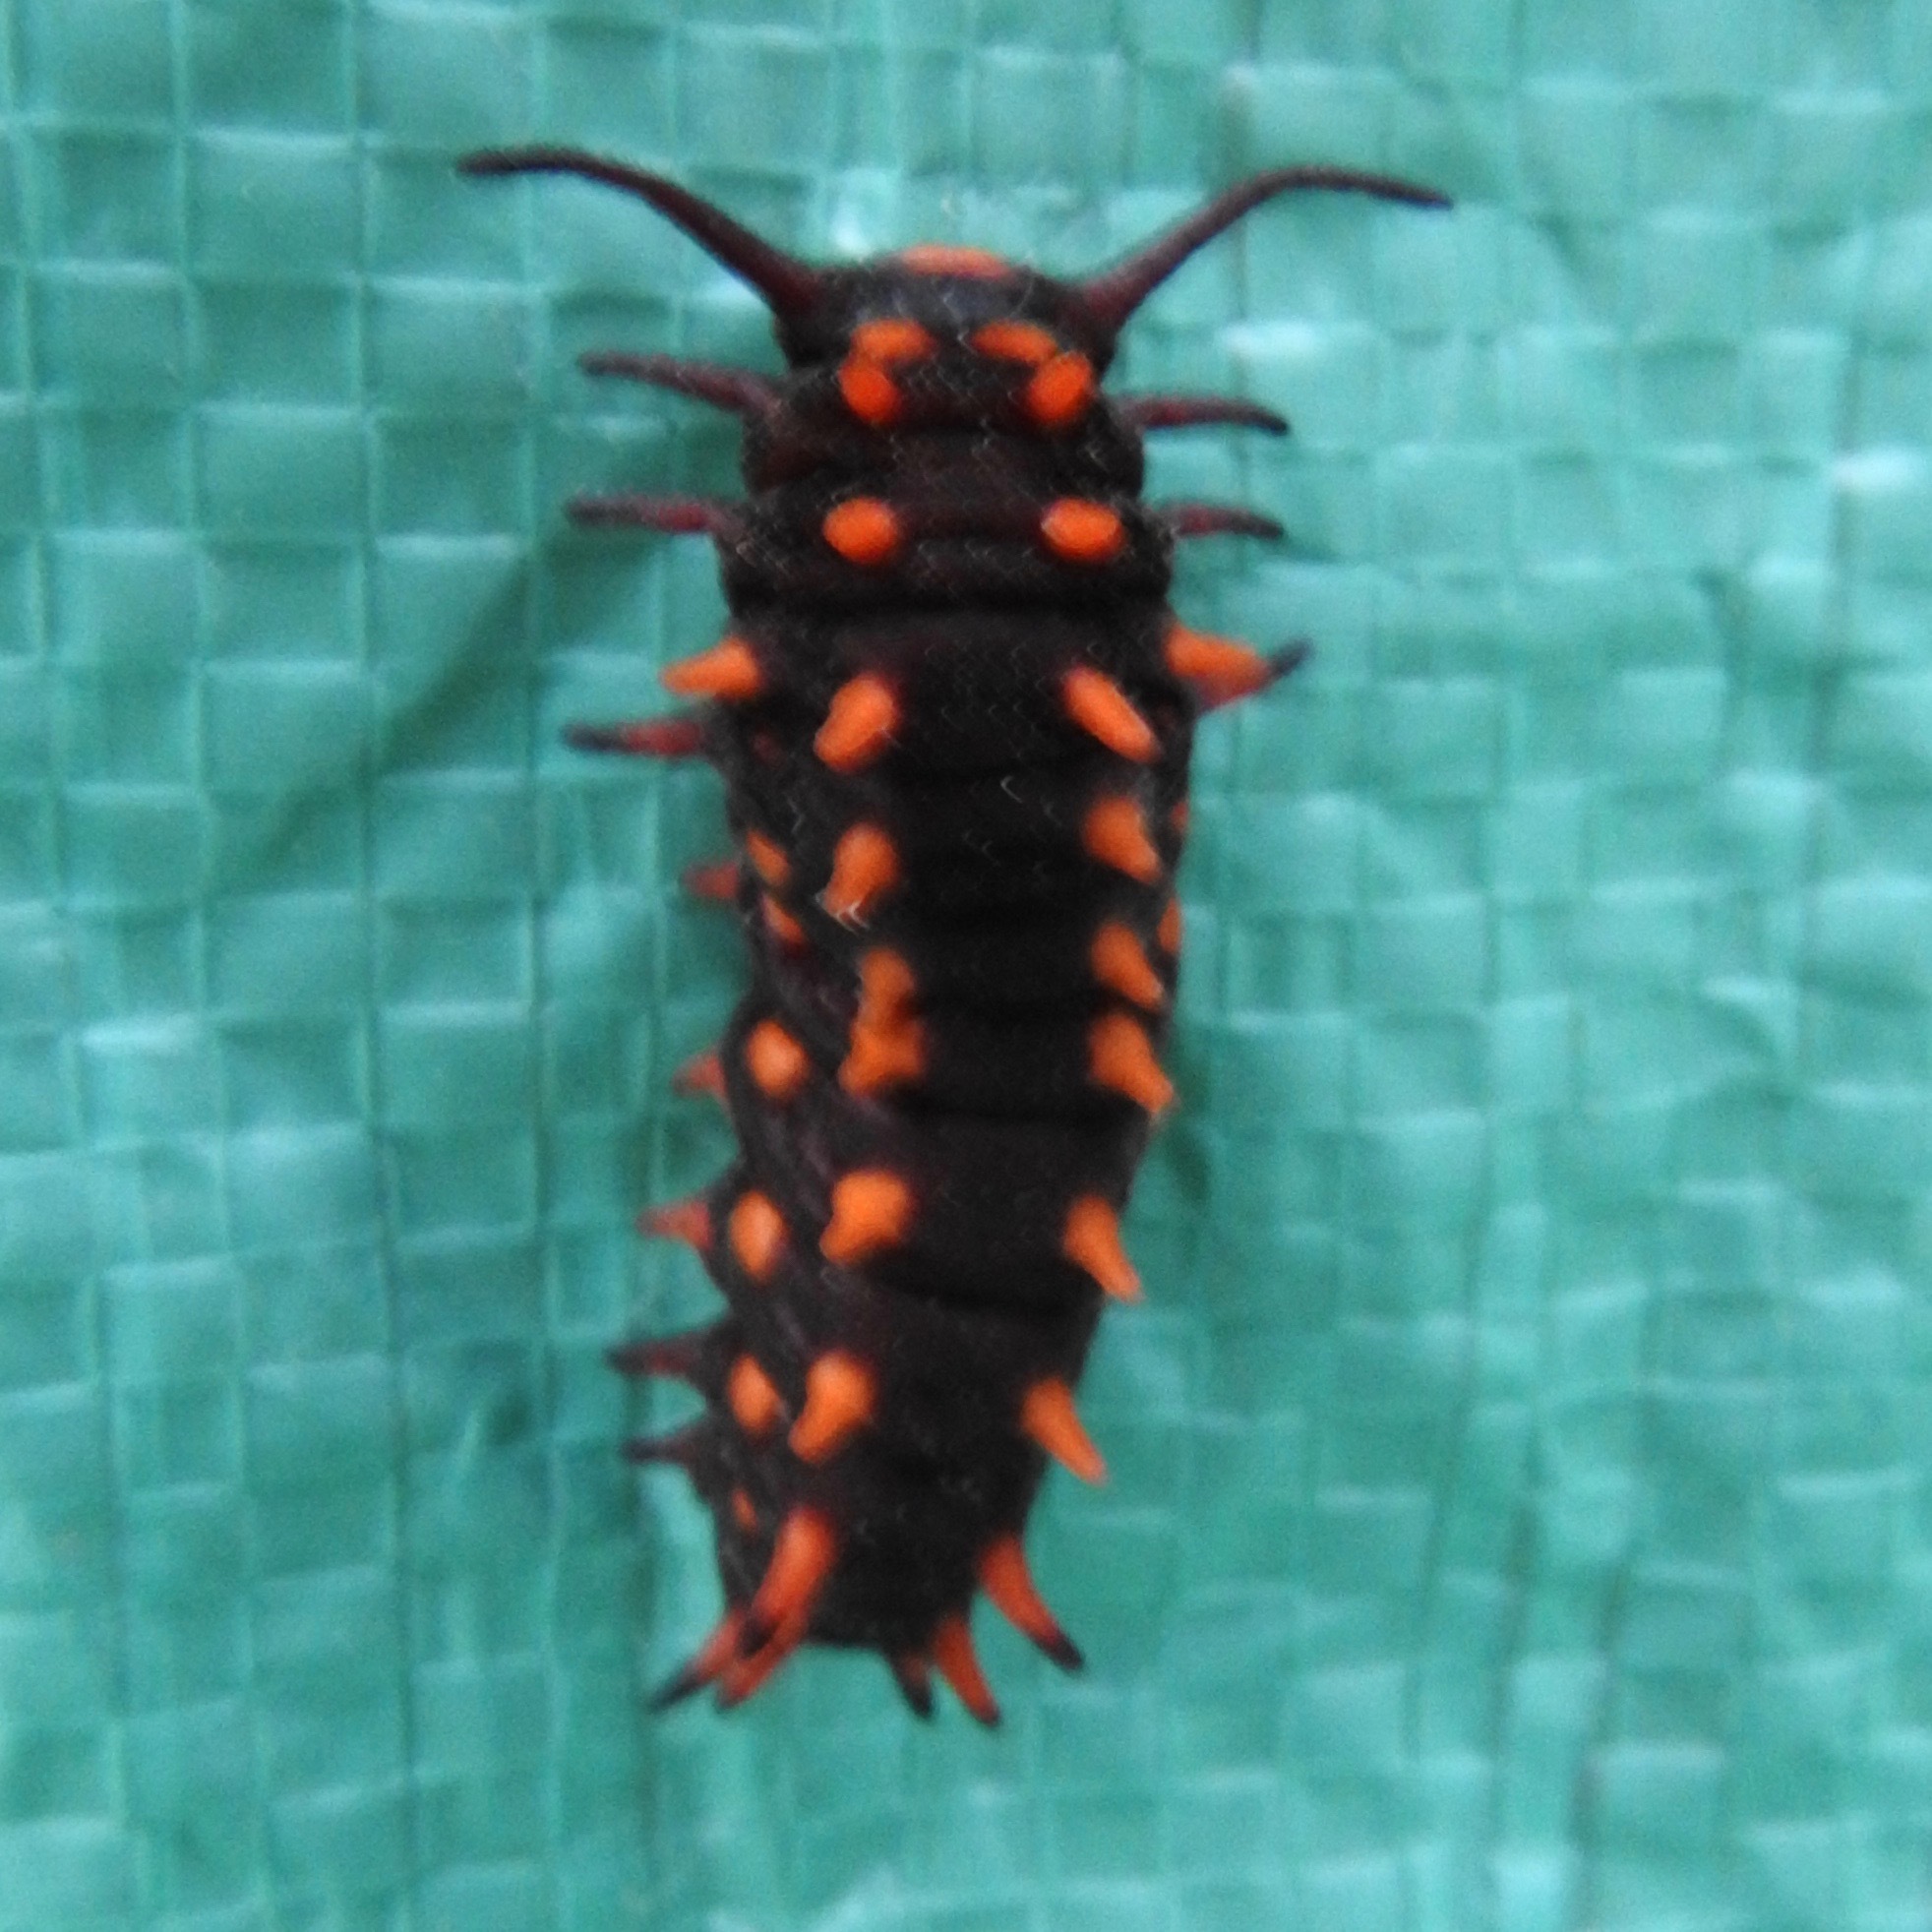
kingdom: Animalia
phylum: Arthropoda
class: Insecta
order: Lepidoptera
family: Papilionidae
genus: Battus
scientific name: Battus philenor
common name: Pipevine swallowtail
